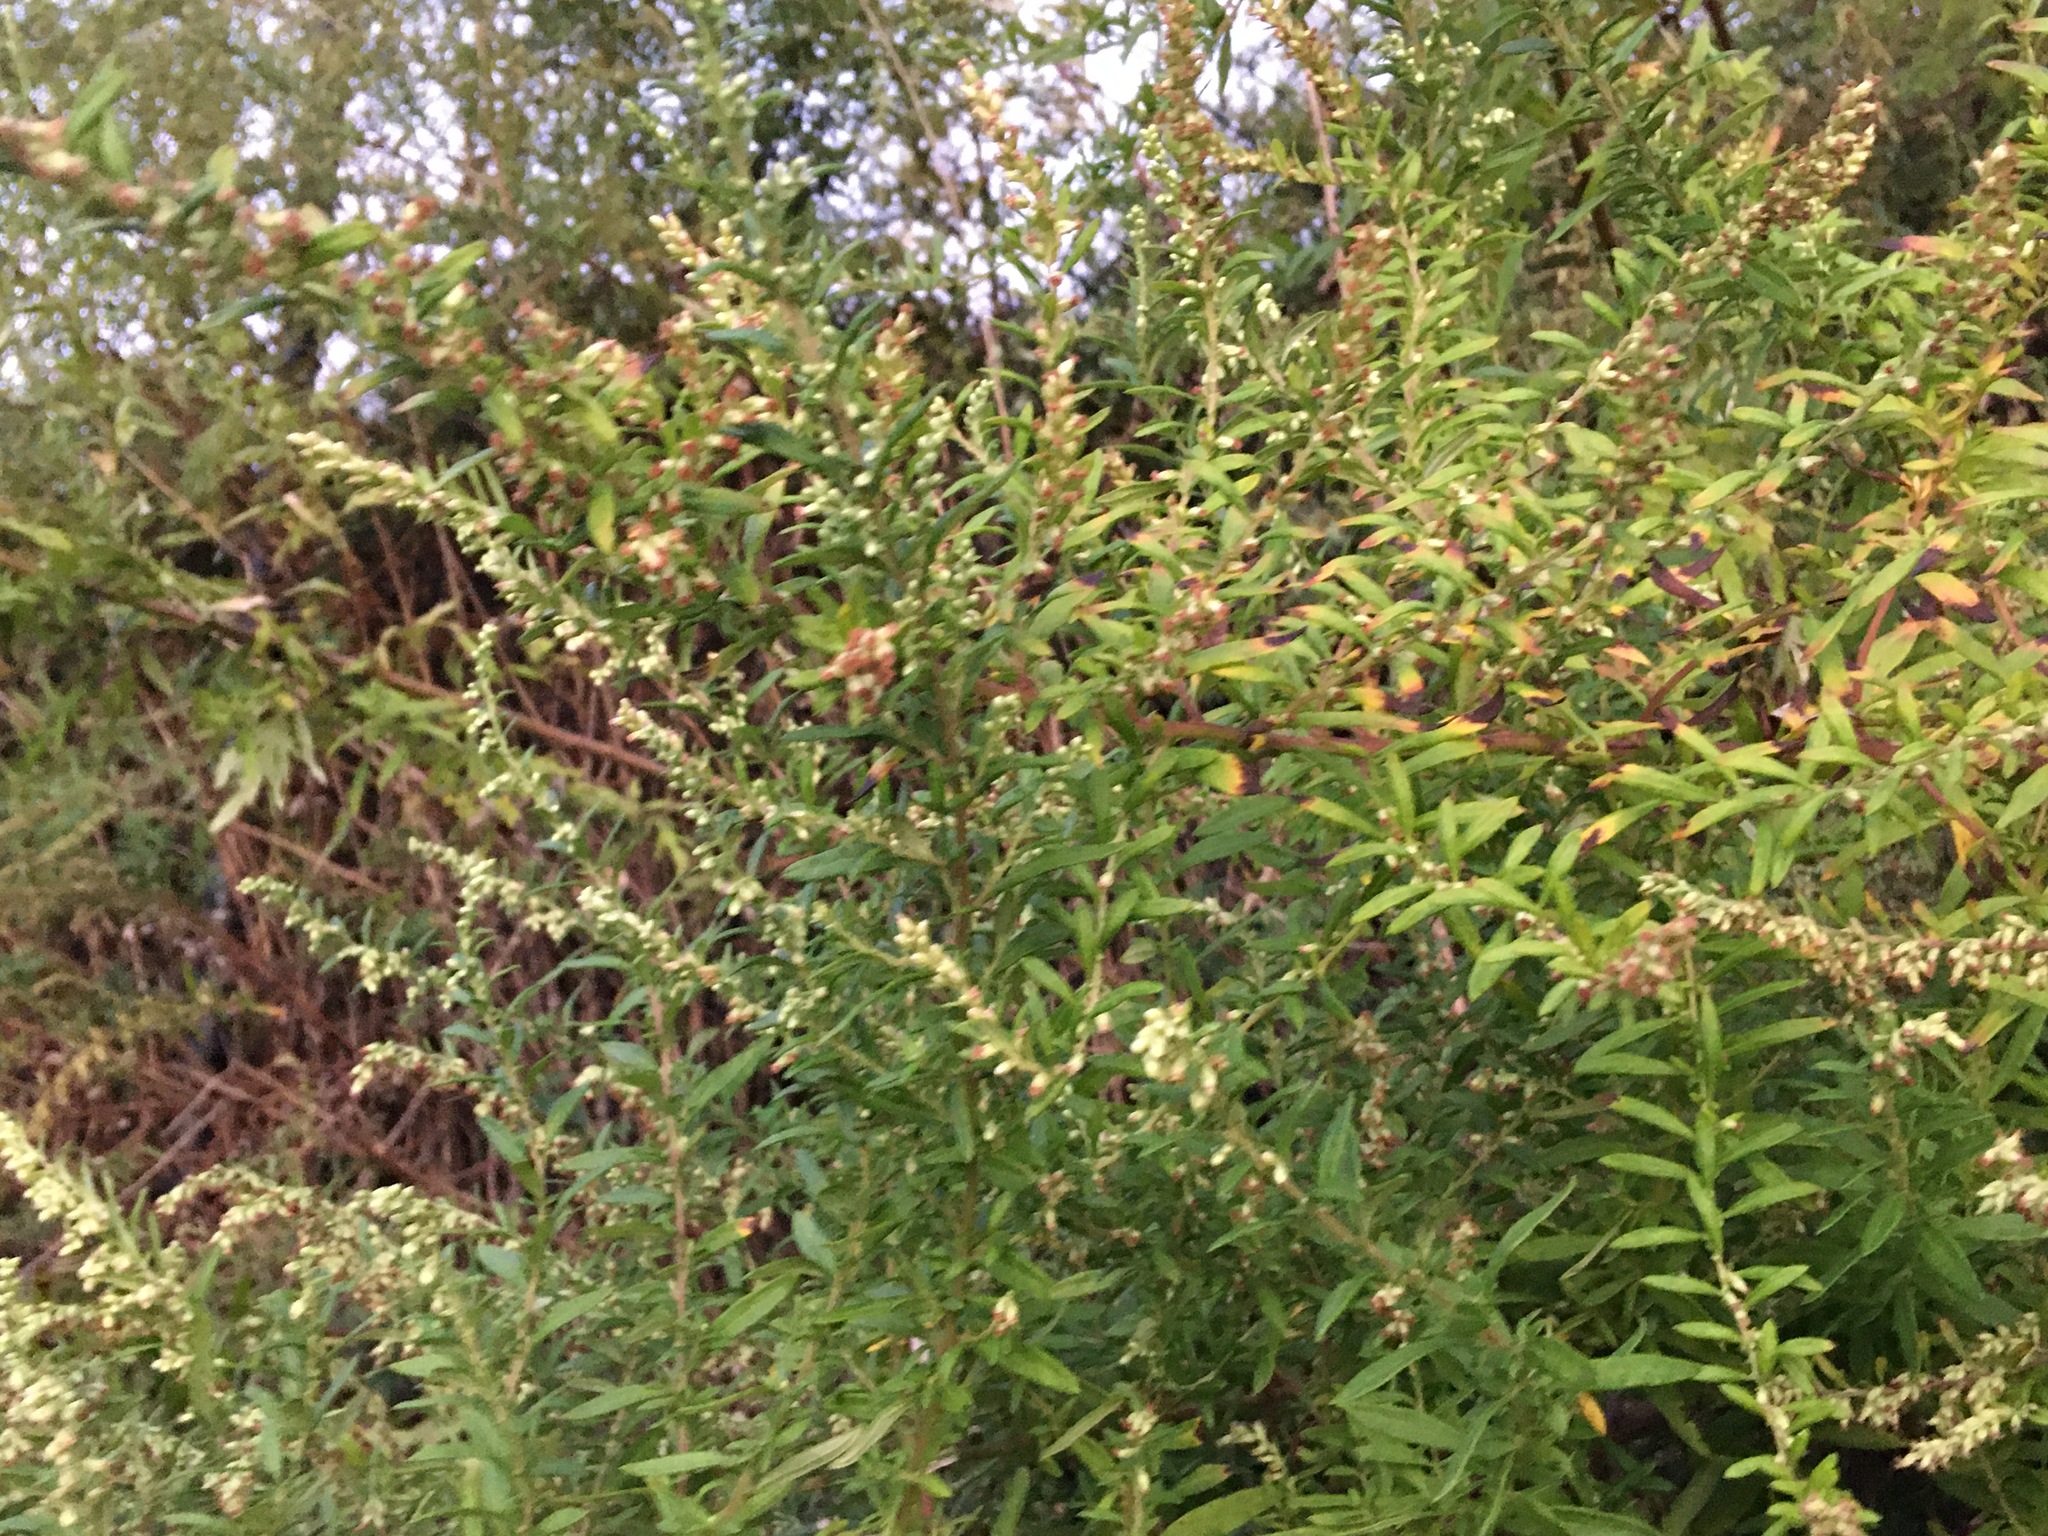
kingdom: Plantae
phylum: Tracheophyta
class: Magnoliopsida
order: Asterales
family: Asteraceae
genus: Artemisia
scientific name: Artemisia vulgaris
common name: Mugwort
